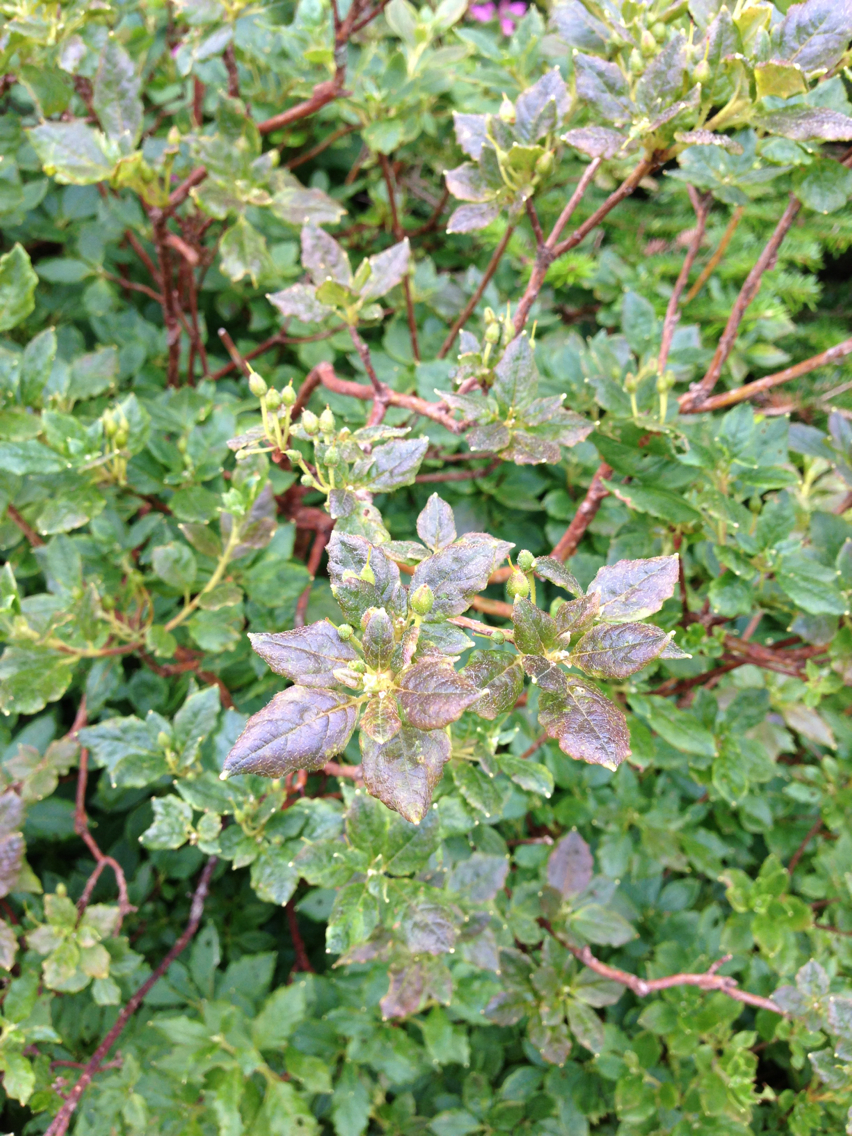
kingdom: Plantae
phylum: Tracheophyta
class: Magnoliopsida
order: Ericales
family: Ericaceae
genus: Rhododendron
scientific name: Rhododendron pilosum
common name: Hairy minniebush
